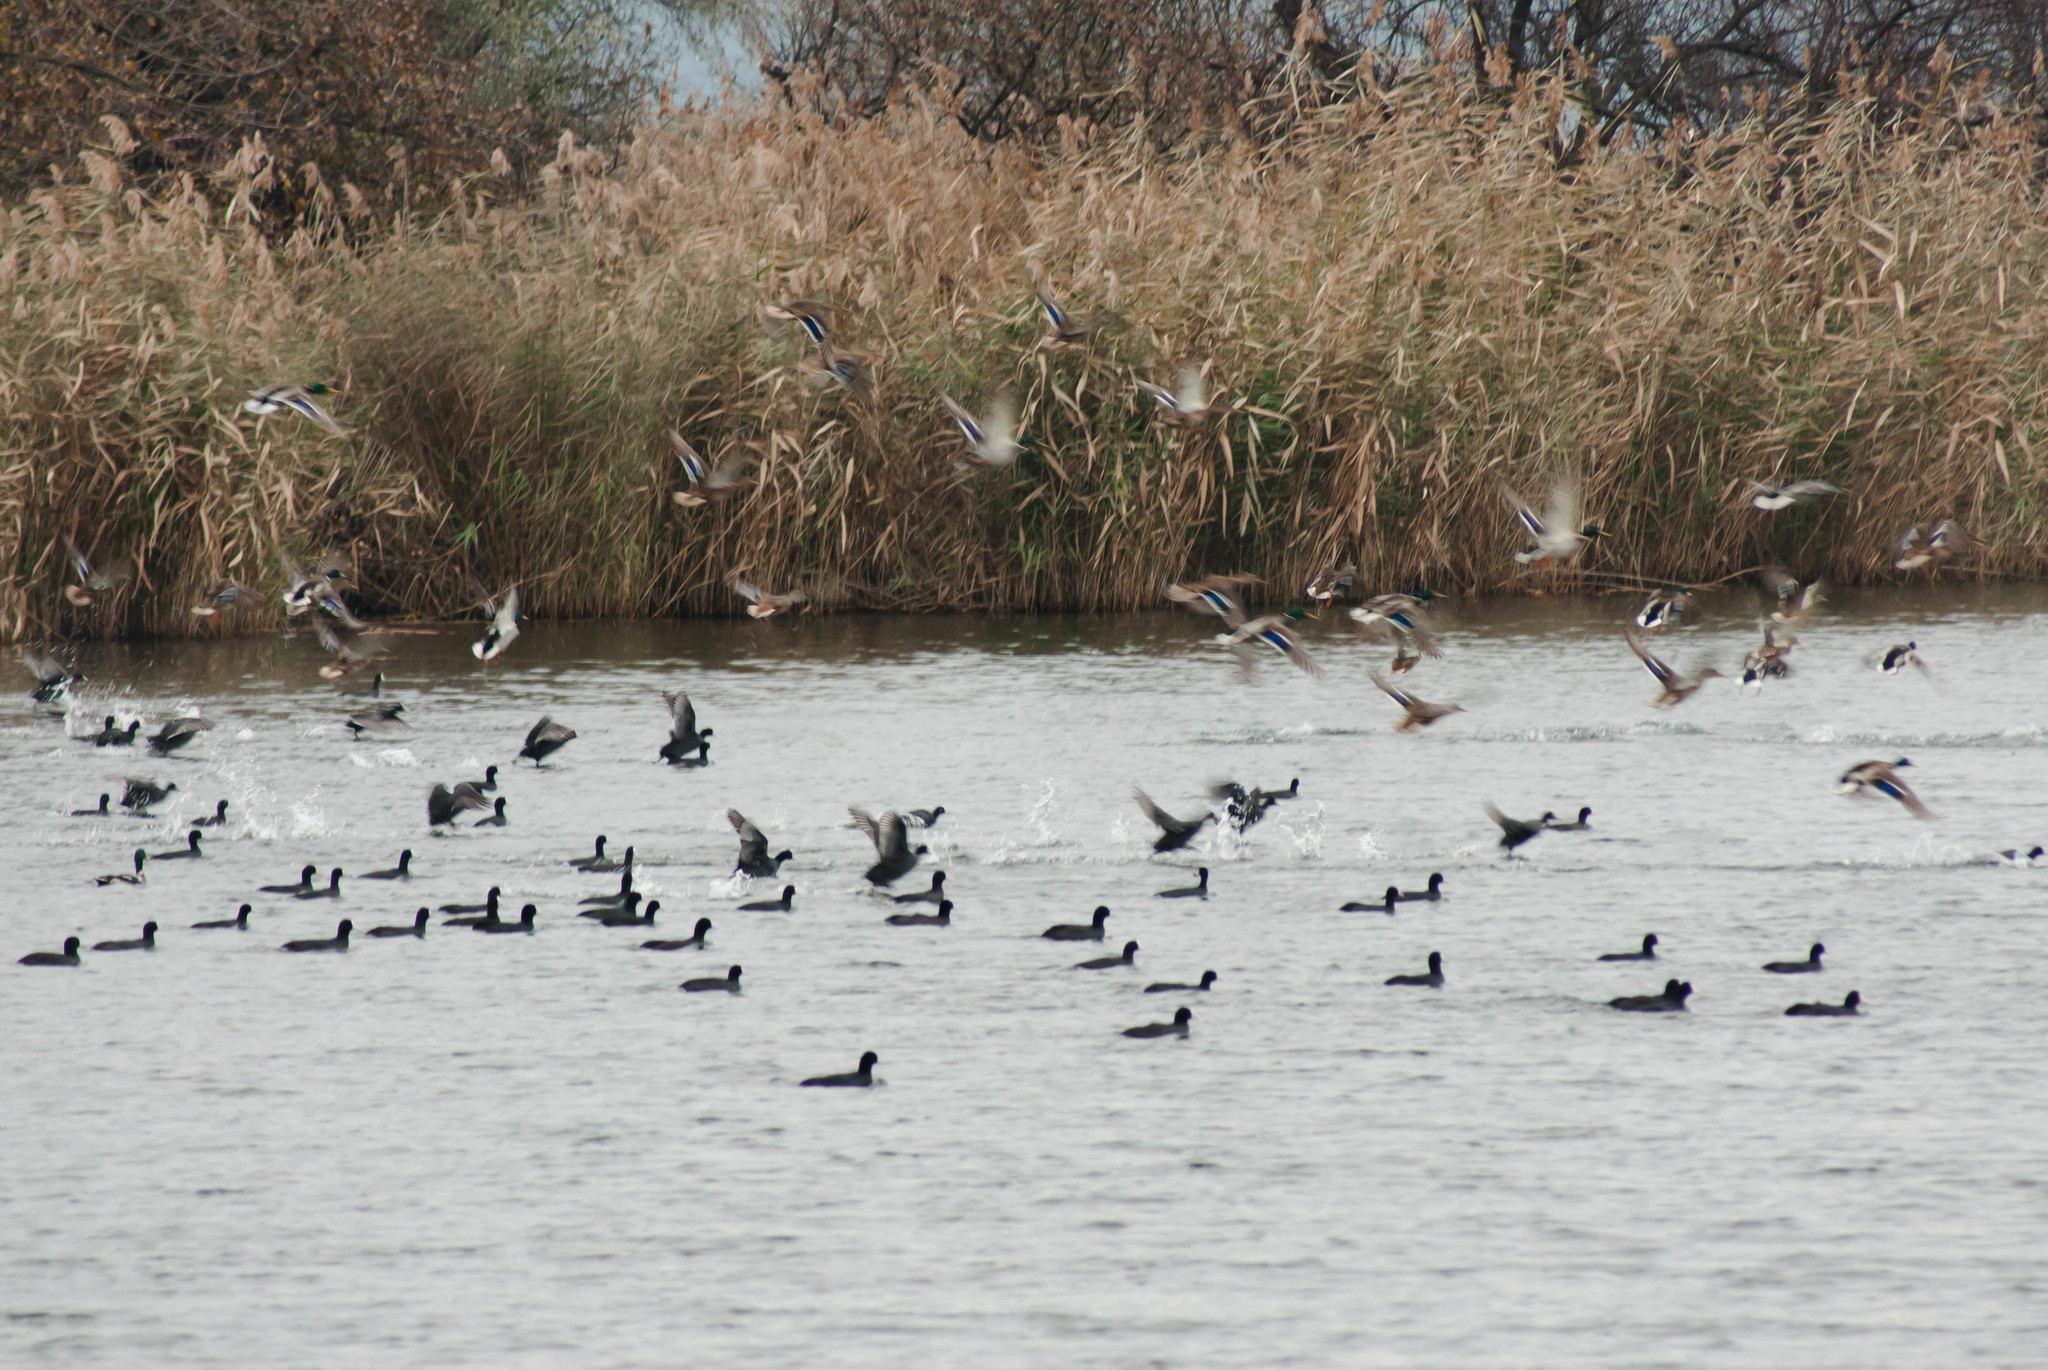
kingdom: Animalia
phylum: Chordata
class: Aves
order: Gruiformes
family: Rallidae
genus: Fulica
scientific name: Fulica atra
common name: Eurasian coot
